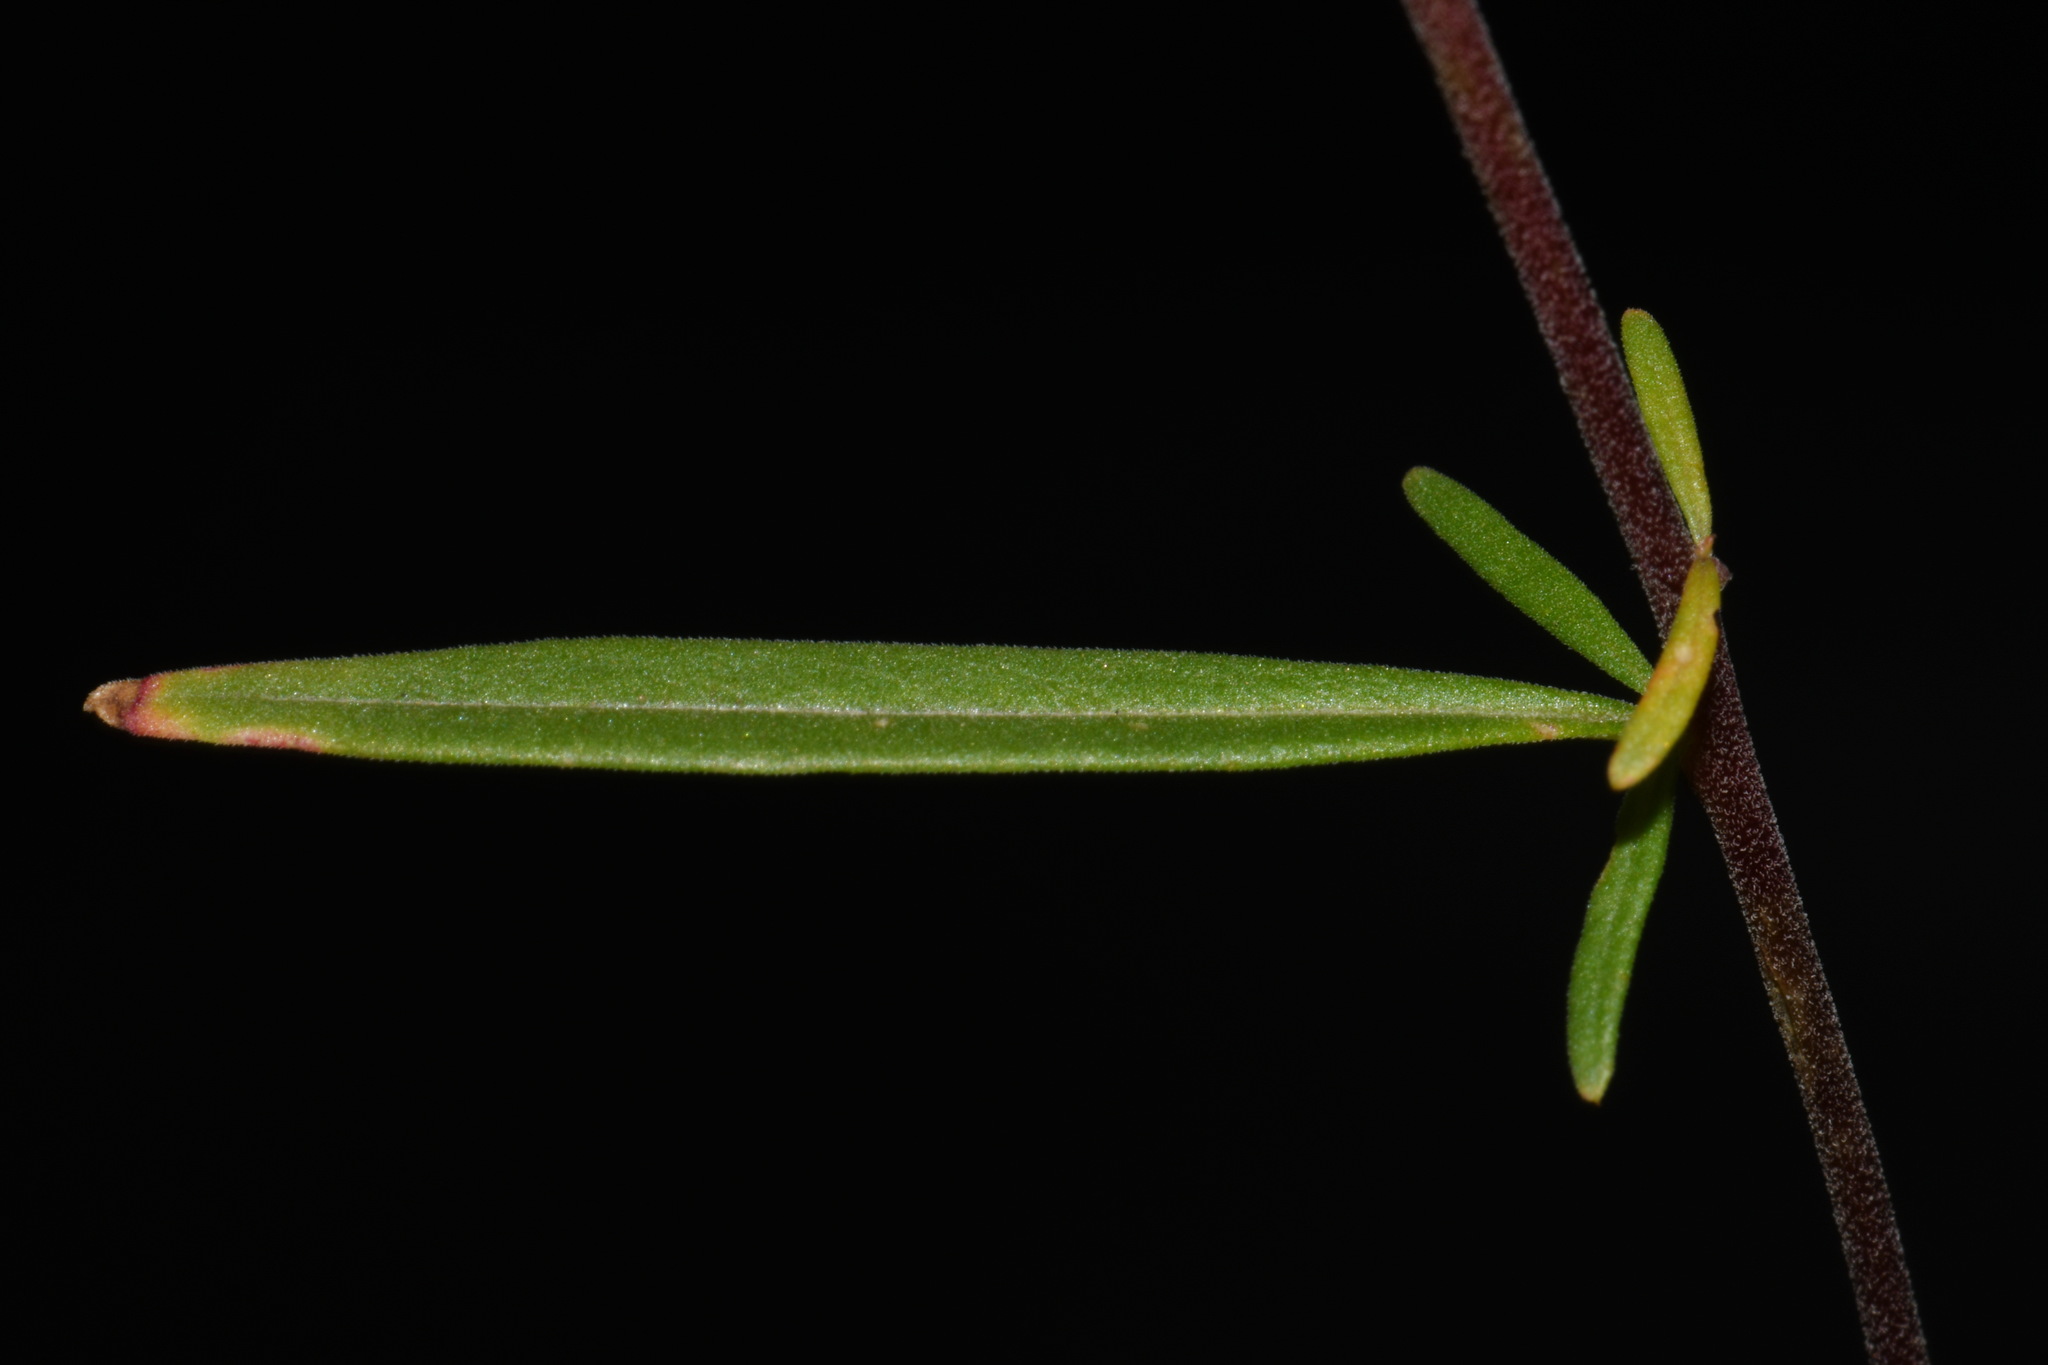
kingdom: Plantae
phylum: Tracheophyta
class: Magnoliopsida
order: Myrtales
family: Onagraceae
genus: Clarkia
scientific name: Clarkia pulchella
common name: Deer horn
